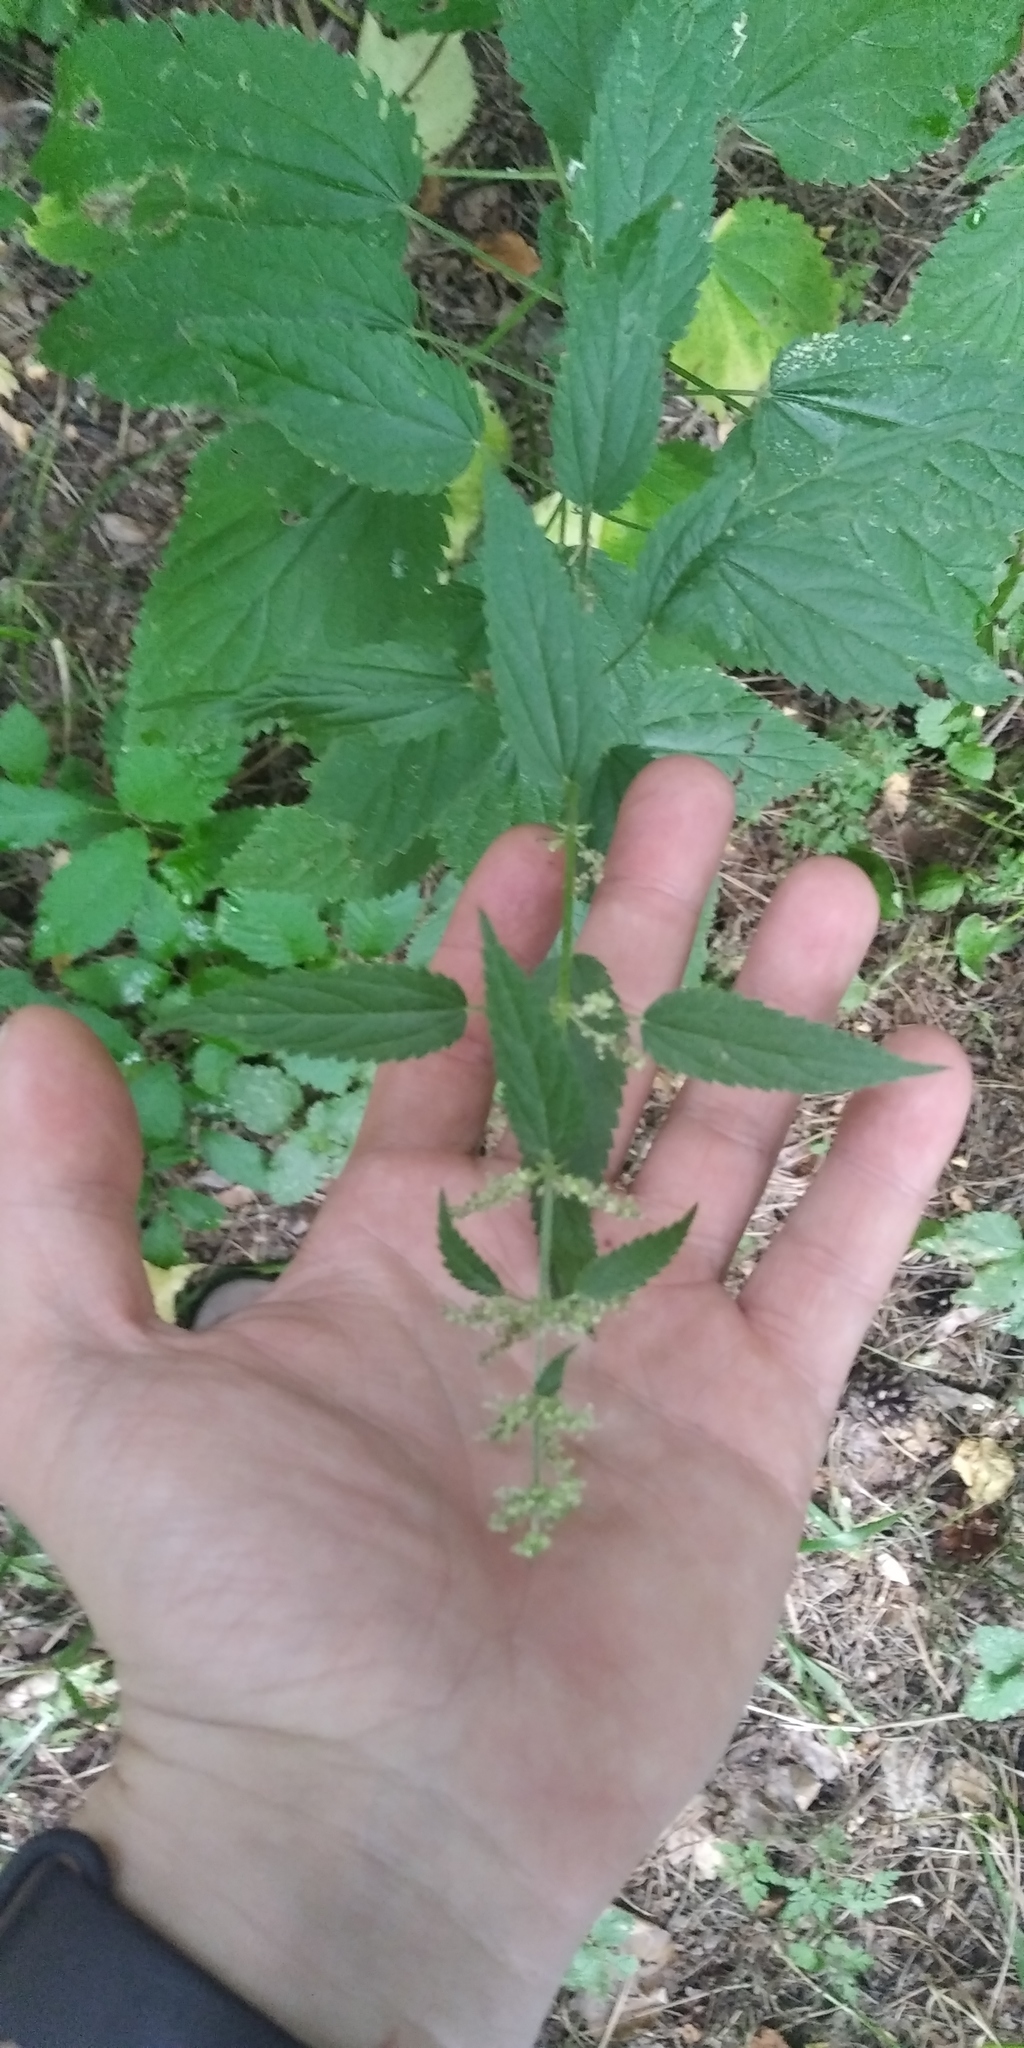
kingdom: Plantae
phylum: Tracheophyta
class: Magnoliopsida
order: Rosales
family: Urticaceae
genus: Urtica
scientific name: Urtica dioica
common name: Common nettle
